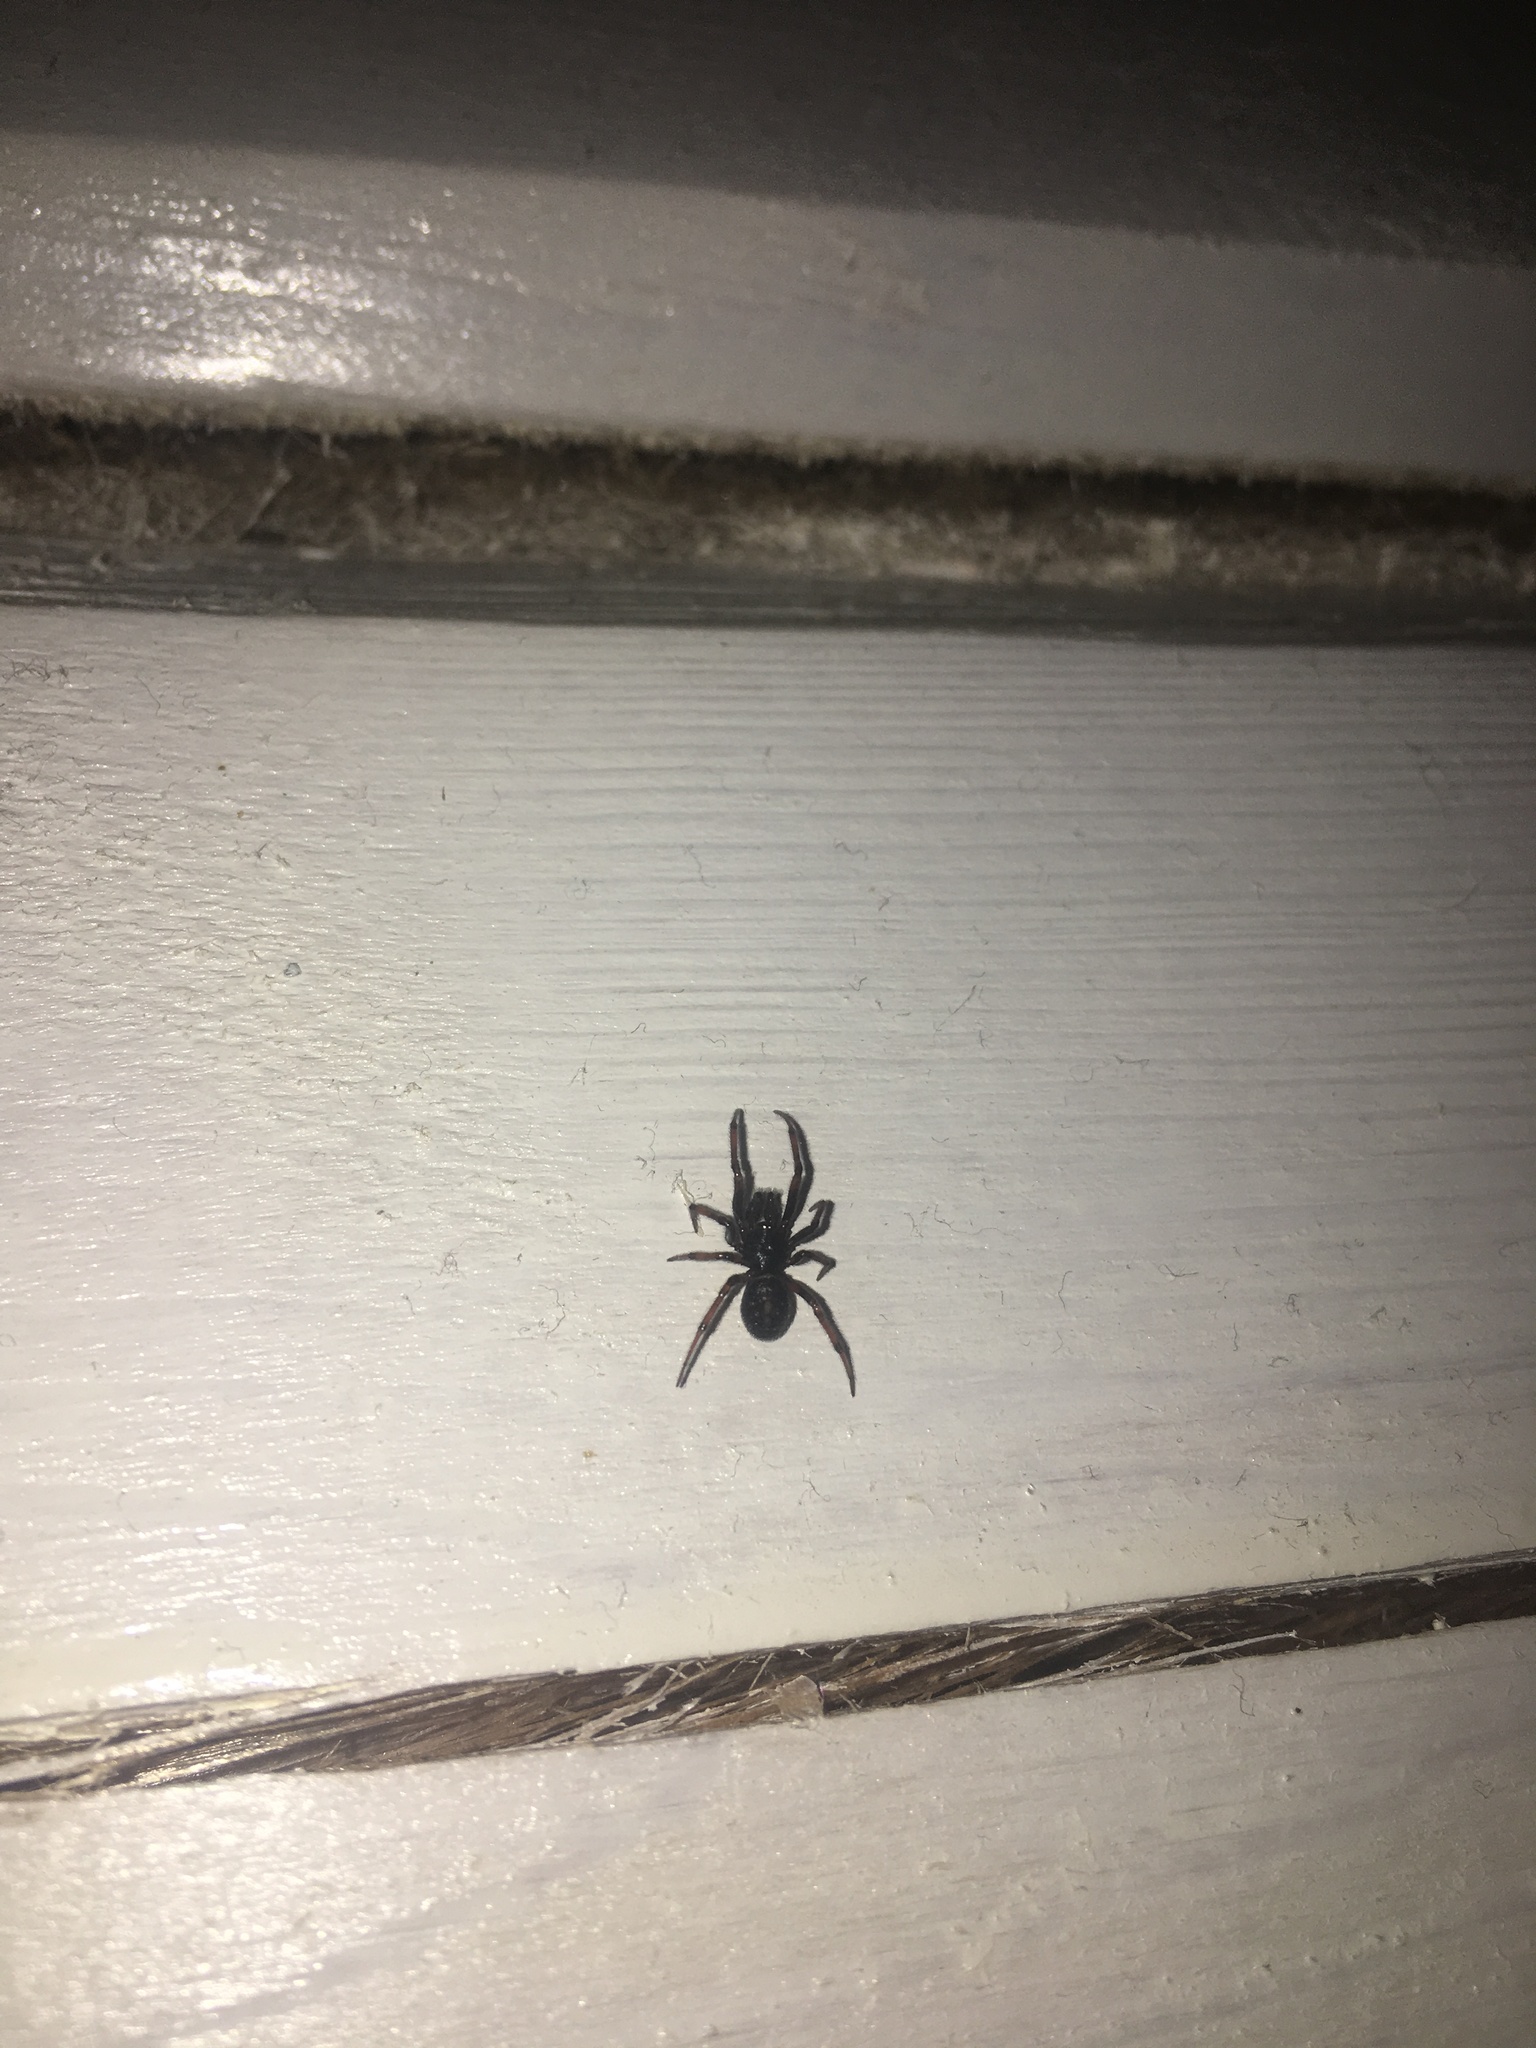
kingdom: Animalia
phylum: Arthropoda
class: Arachnida
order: Araneae
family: Theridiidae
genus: Steatoda
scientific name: Steatoda bipunctata
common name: False widow
